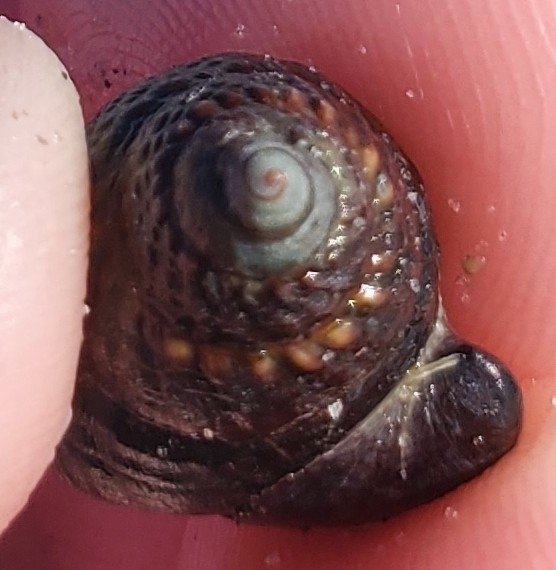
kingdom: Animalia
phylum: Mollusca
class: Gastropoda
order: Neogastropoda
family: Nassariidae
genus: Ilyanassa
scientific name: Ilyanassa obsoleta
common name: Eastern mudsnail
